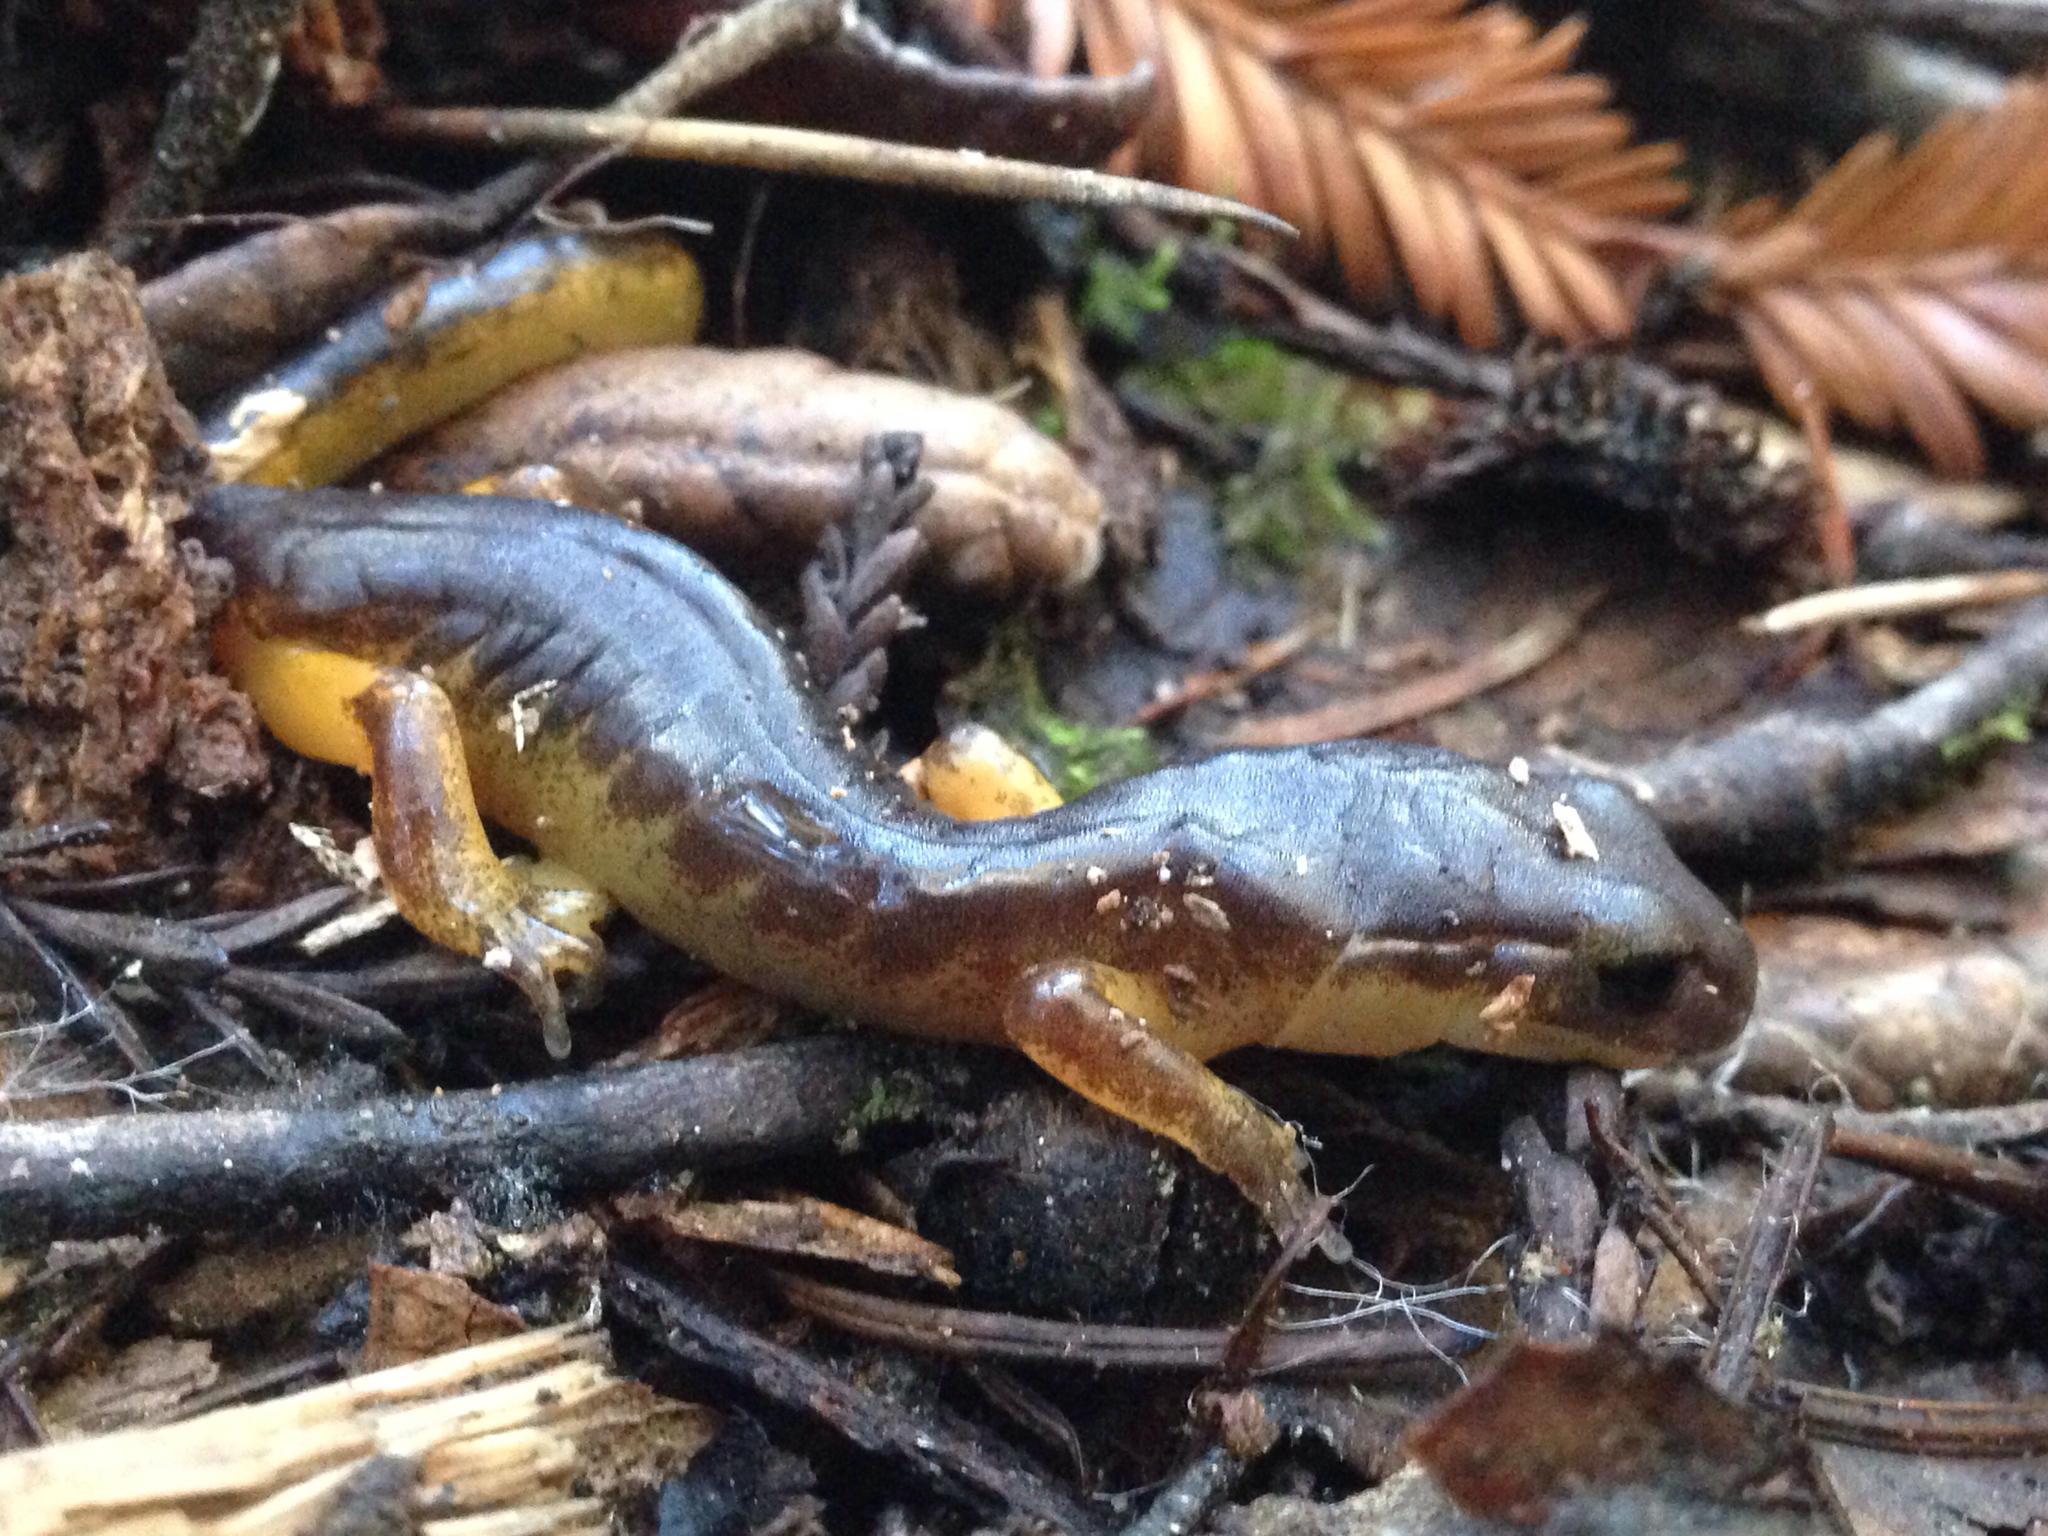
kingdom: Animalia
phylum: Chordata
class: Amphibia
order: Caudata
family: Plethodontidae
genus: Ensatina
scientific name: Ensatina eschscholtzii
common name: Ensatina
